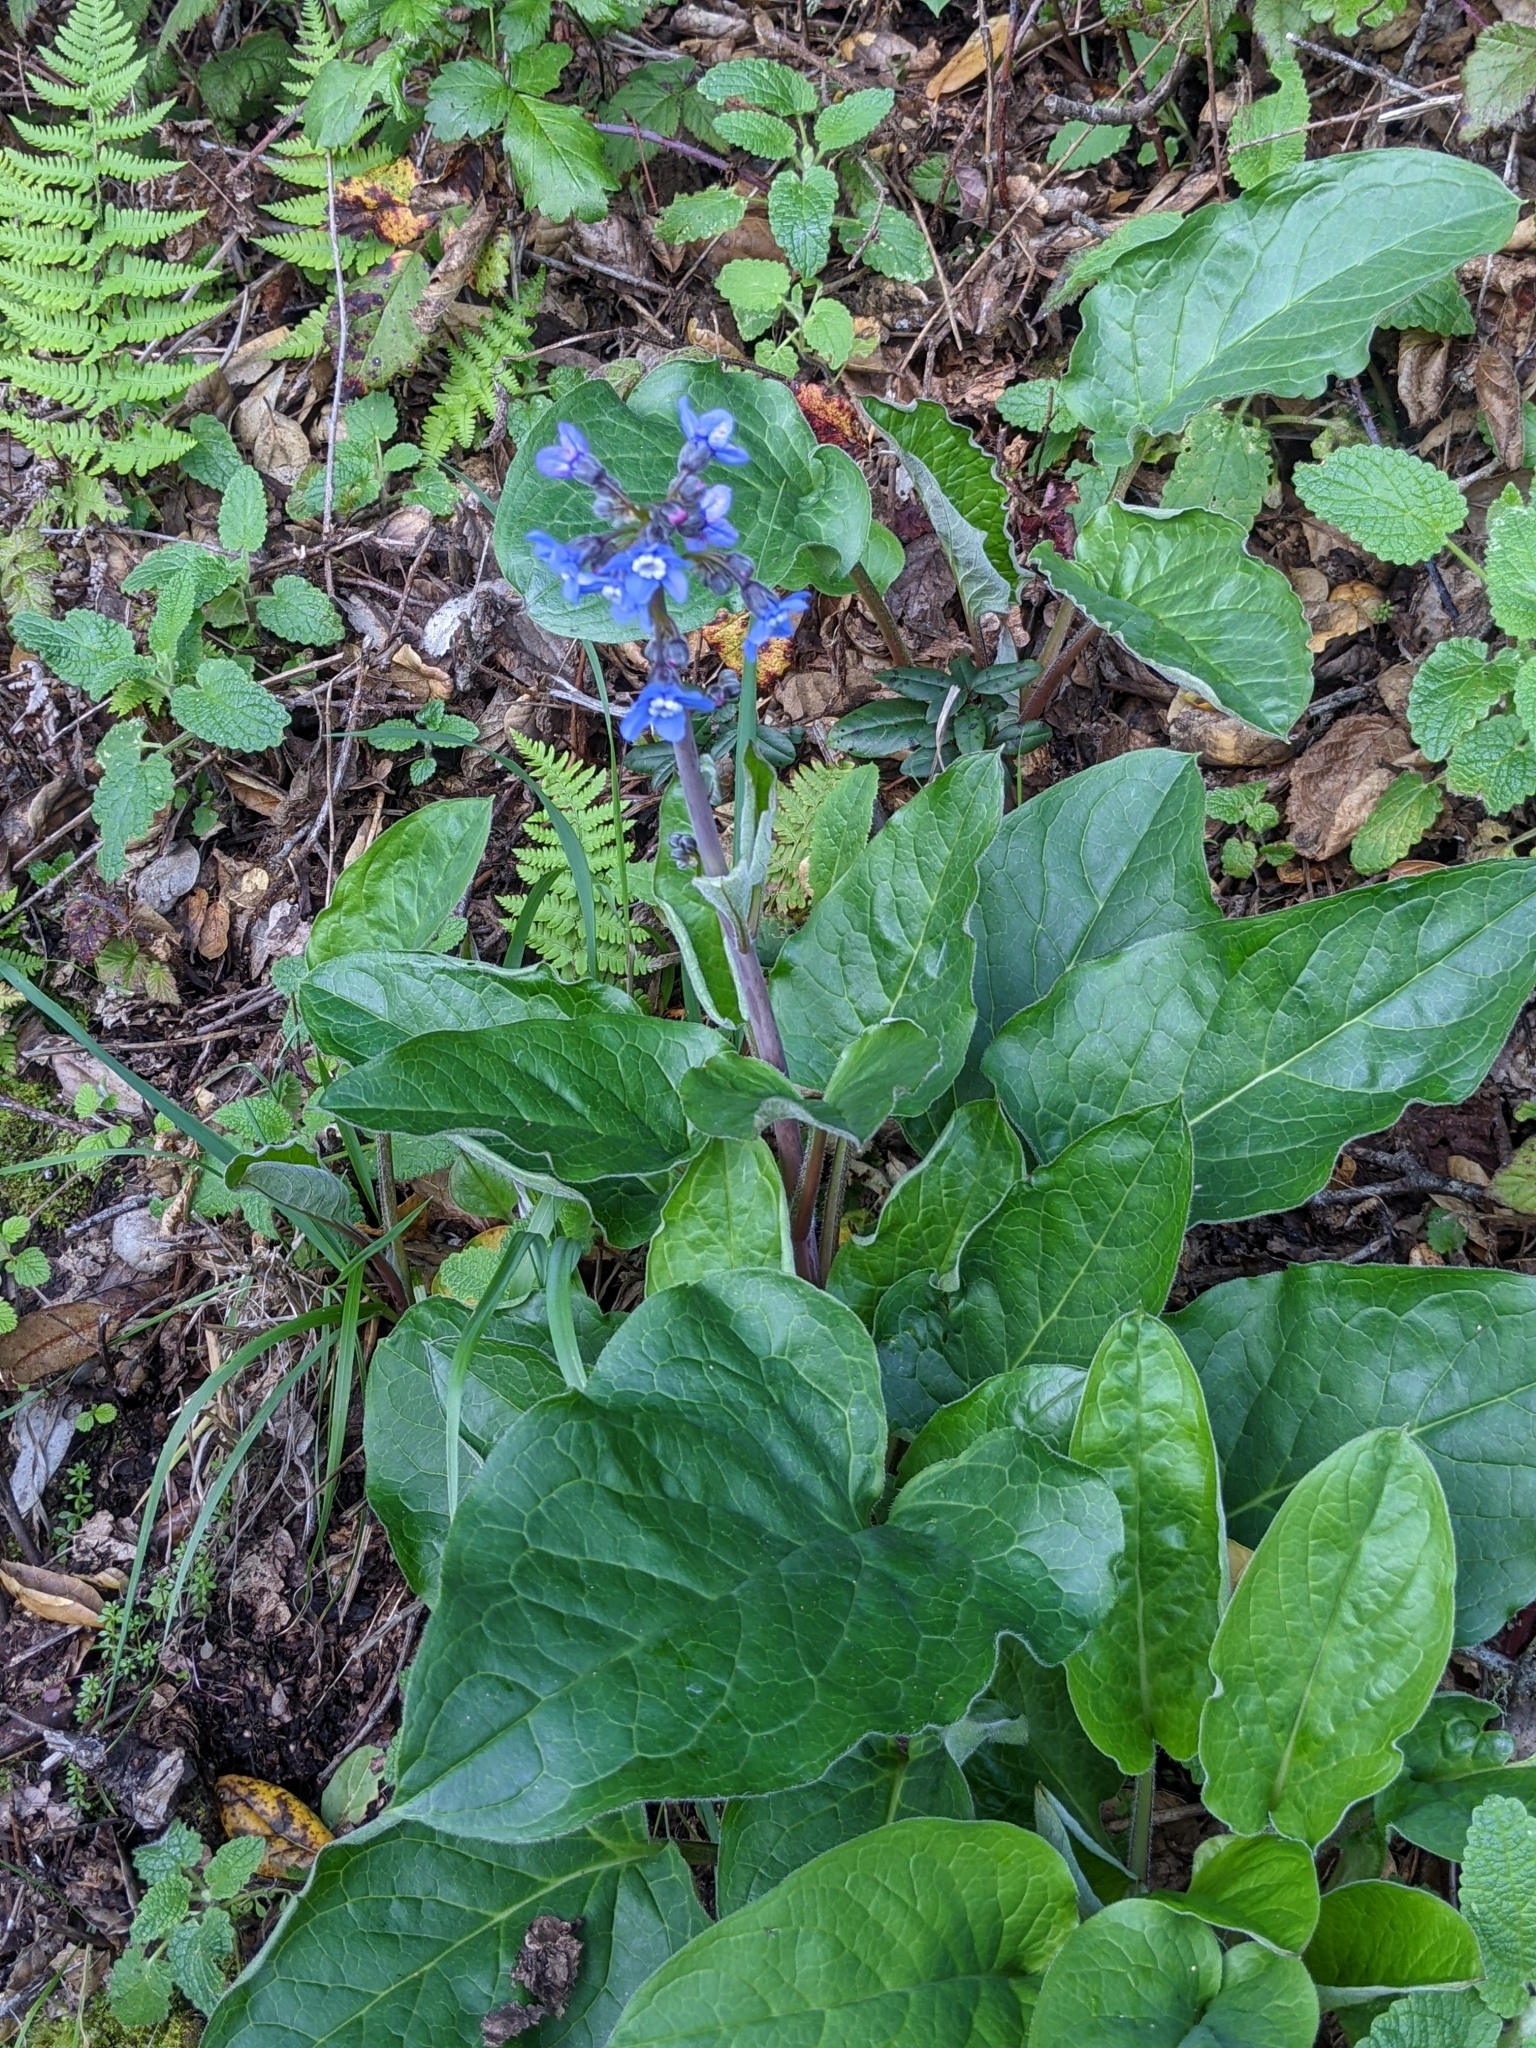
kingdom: Plantae
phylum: Tracheophyta
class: Magnoliopsida
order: Boraginales
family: Boraginaceae
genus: Adelinia
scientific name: Adelinia grande
